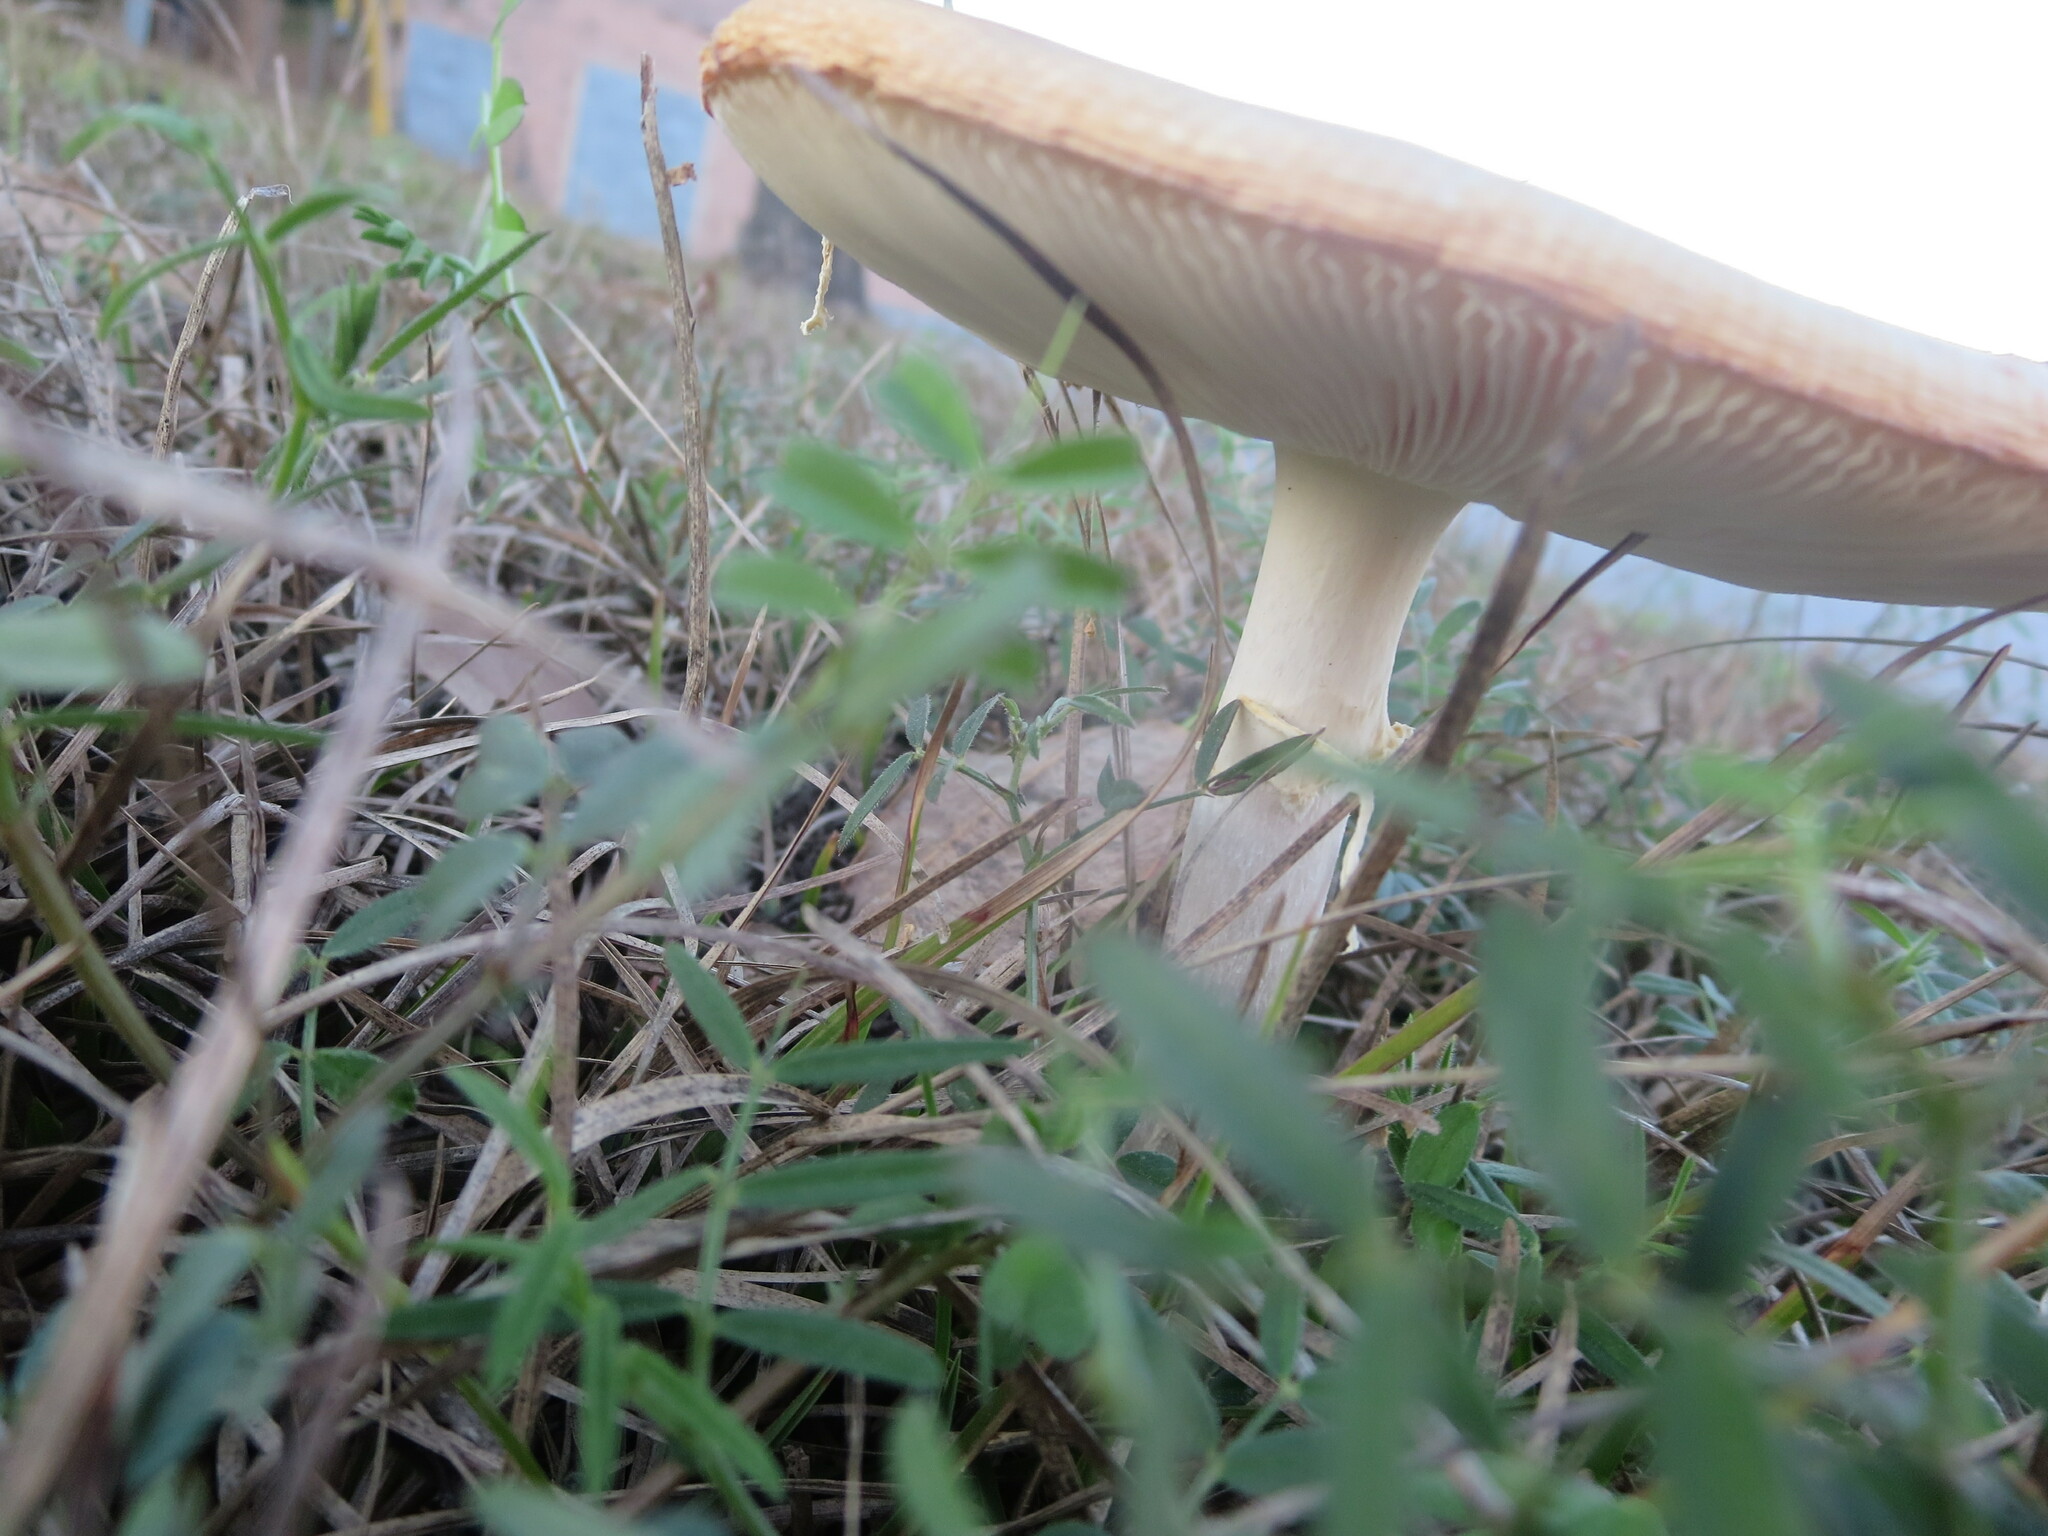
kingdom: Fungi
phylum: Basidiomycota
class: Agaricomycetes
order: Agaricales
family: Amanitaceae
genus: Amanita
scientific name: Amanita persicina
